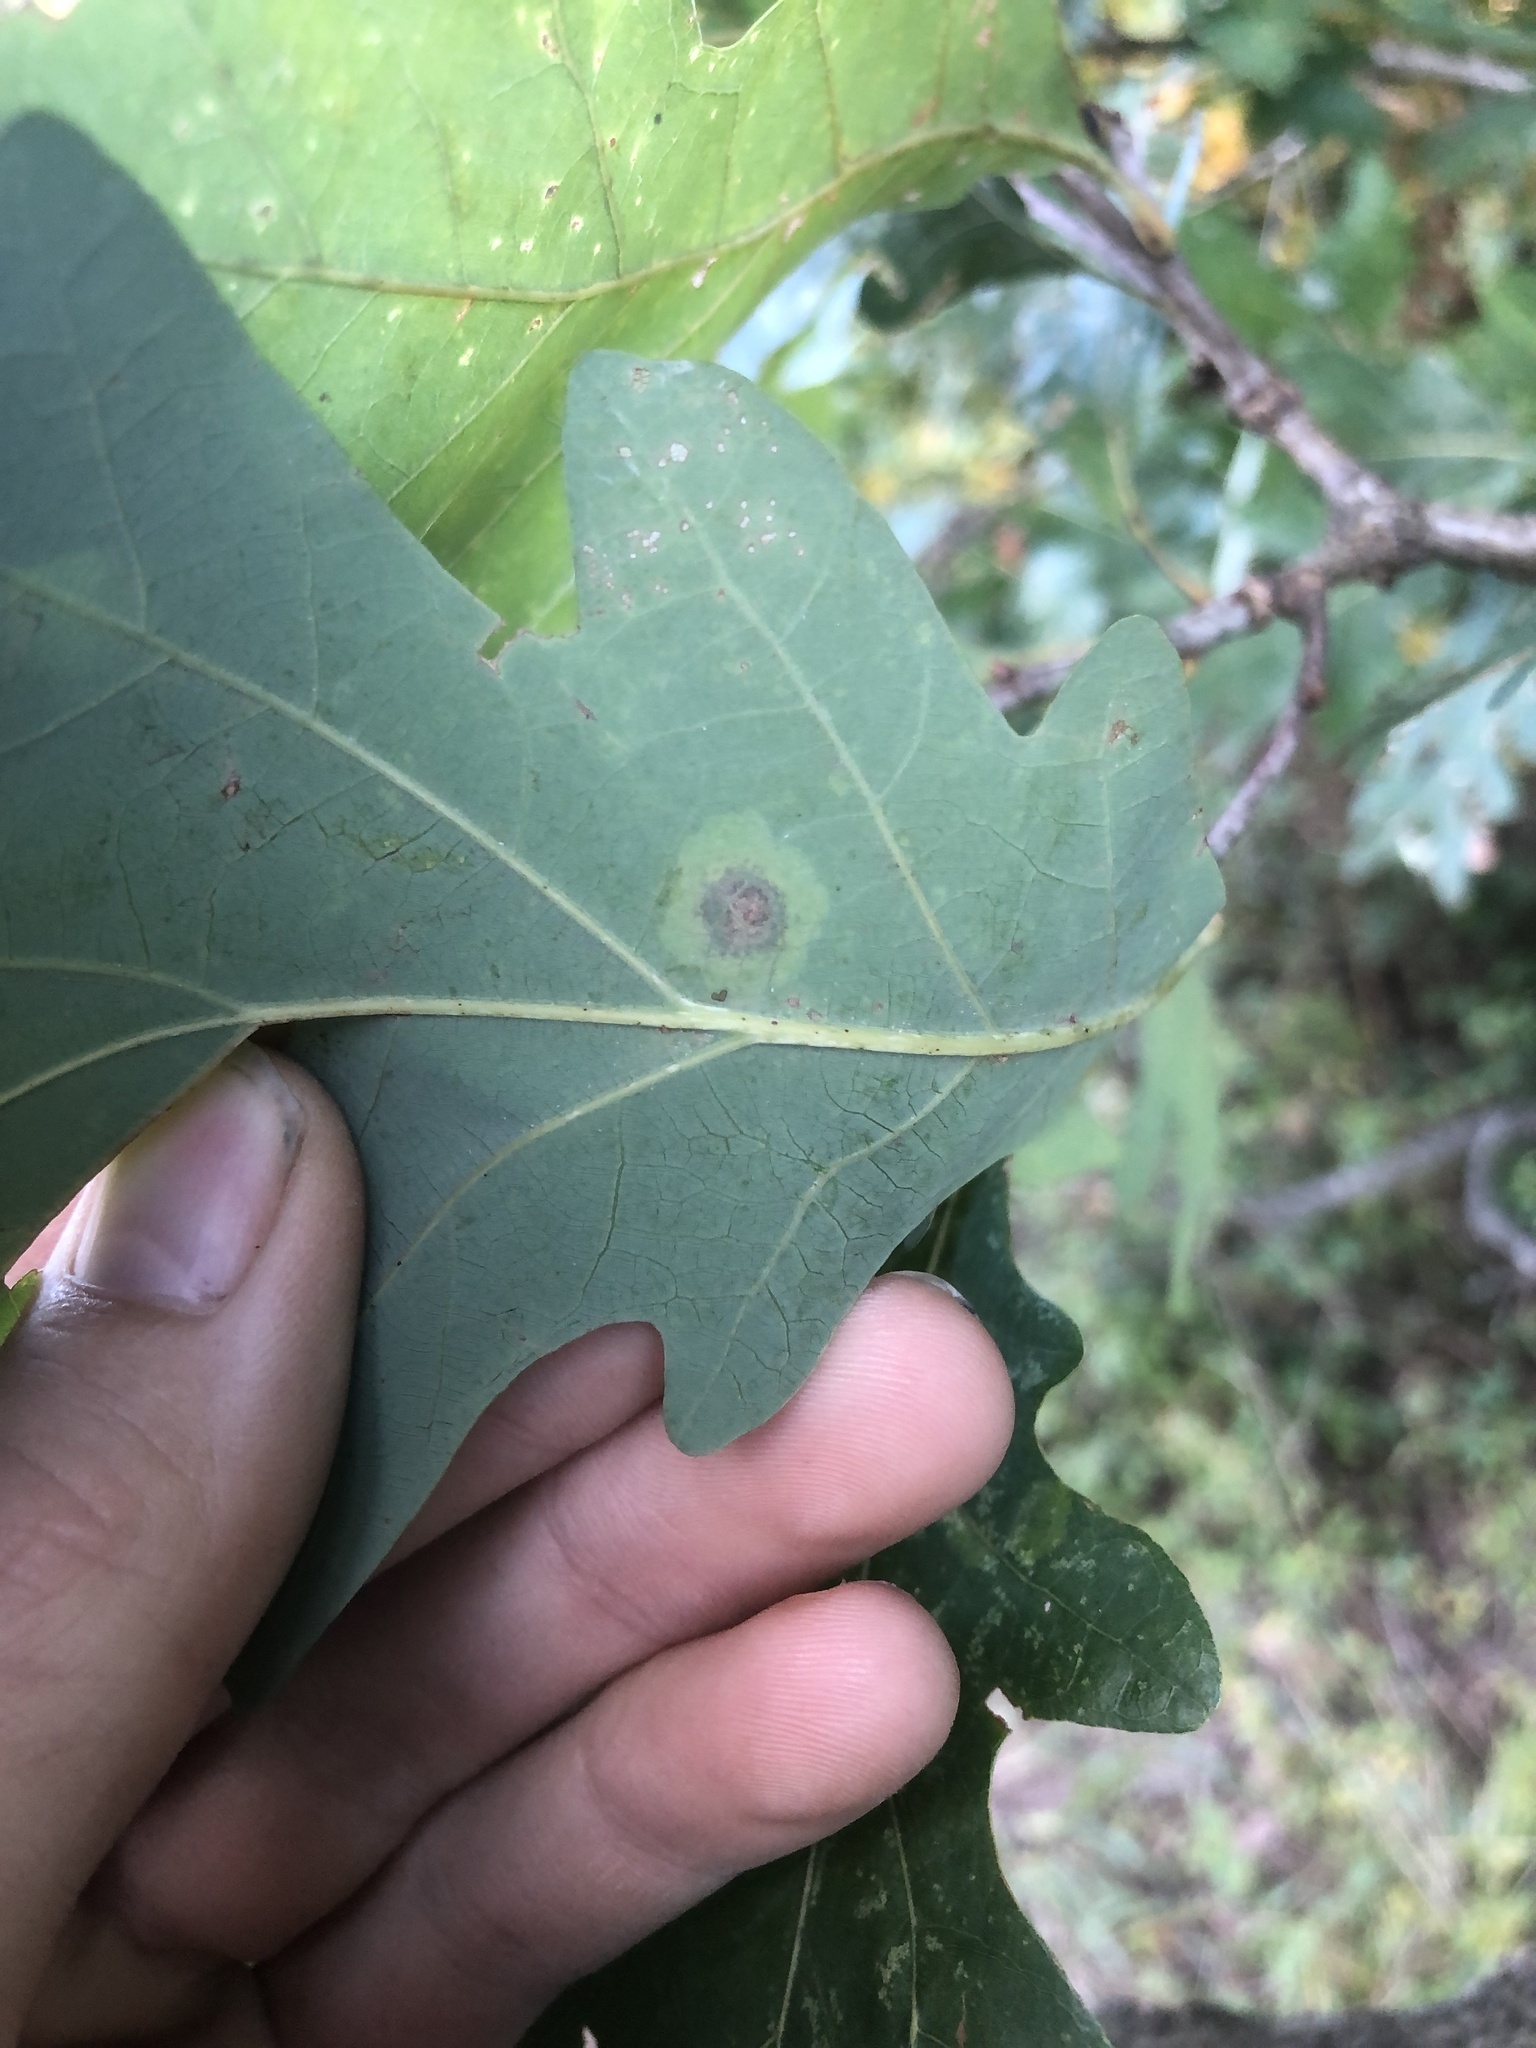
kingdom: Animalia
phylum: Arthropoda
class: Insecta
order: Lepidoptera
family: Gracillariidae
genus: Cameraria
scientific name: Cameraria
